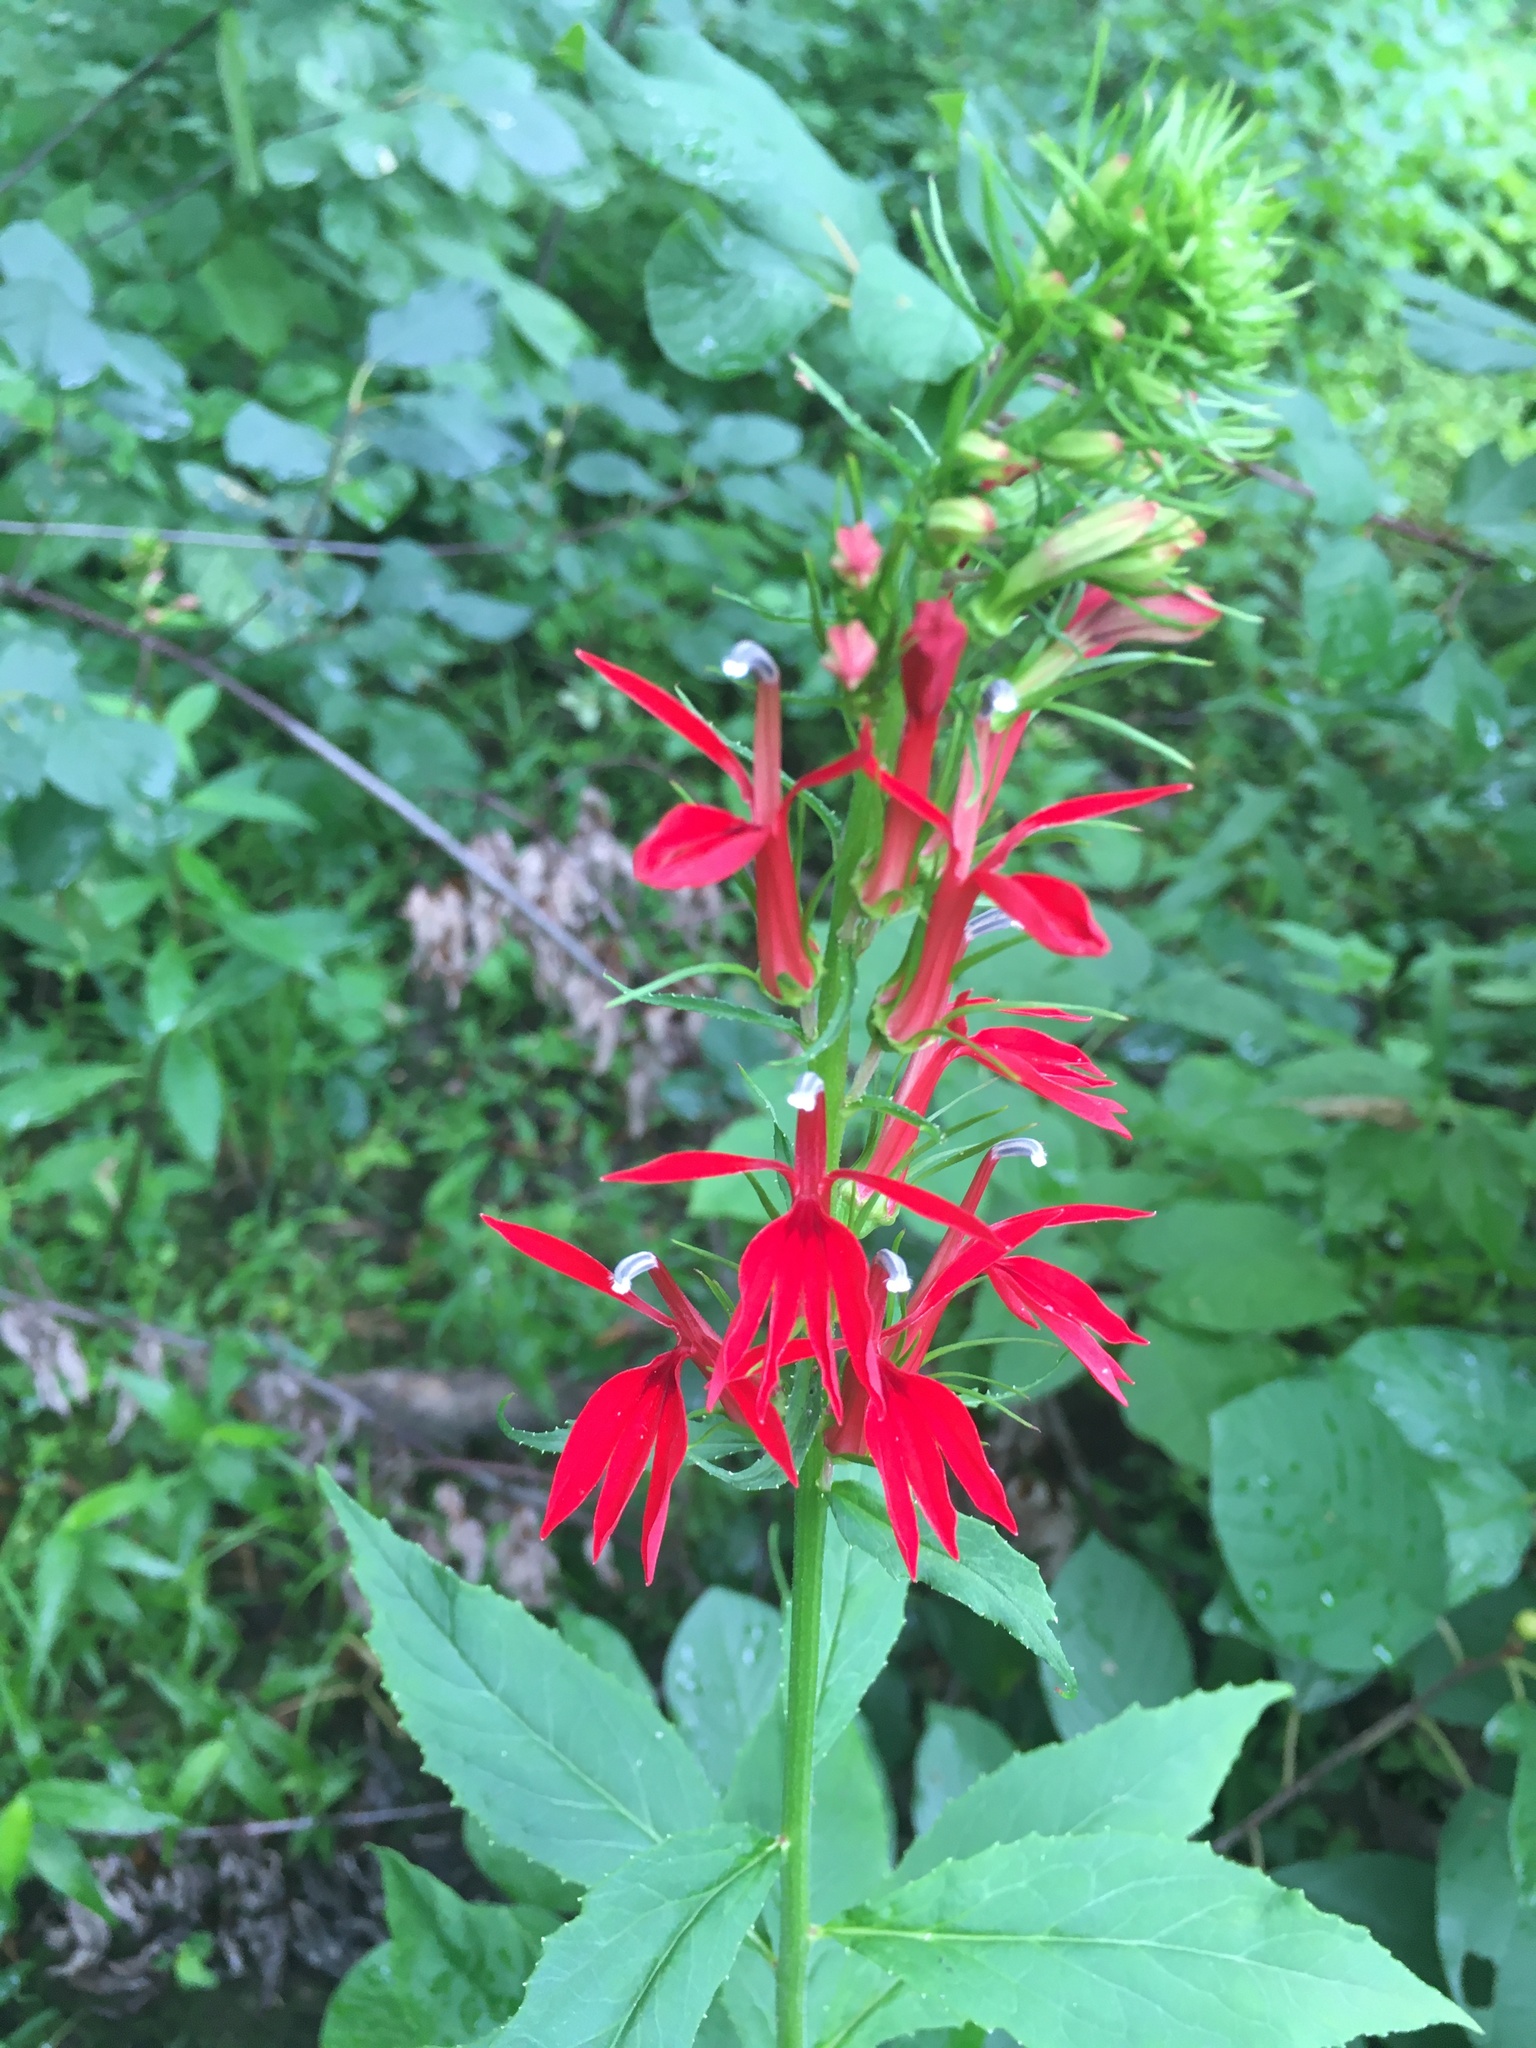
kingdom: Plantae
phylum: Tracheophyta
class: Magnoliopsida
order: Asterales
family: Campanulaceae
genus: Lobelia
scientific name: Lobelia cardinalis
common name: Cardinal flower
